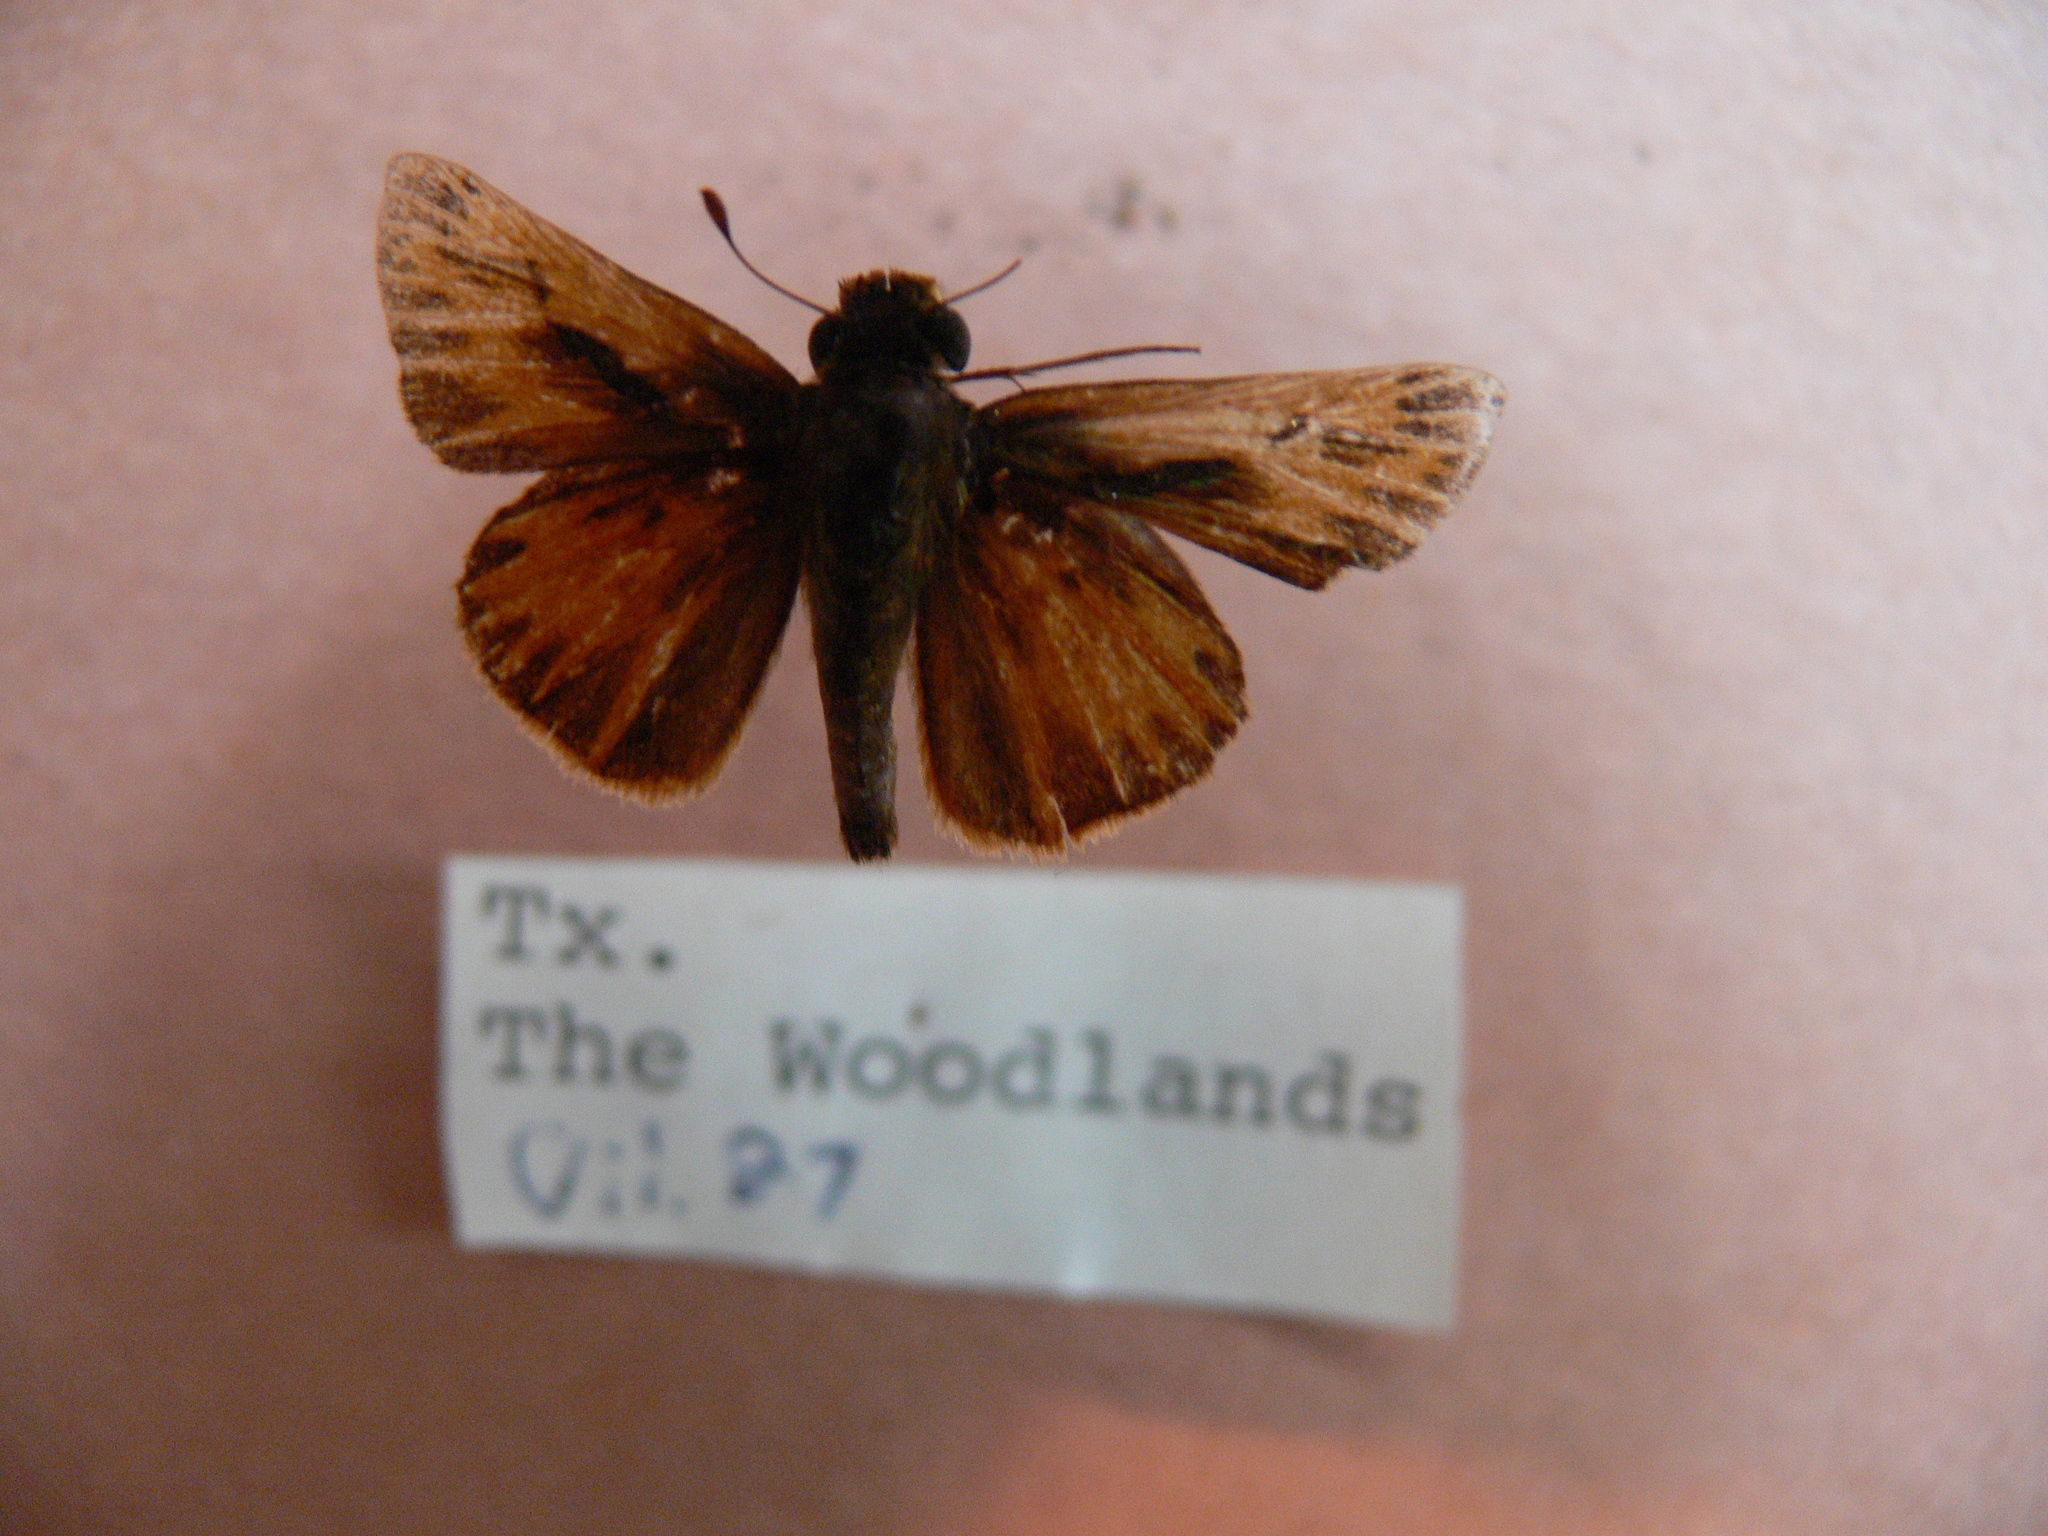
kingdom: Animalia
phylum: Arthropoda
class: Insecta
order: Lepidoptera
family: Hesperiidae
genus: Hylephila
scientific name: Hylephila phyleus
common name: Fiery skipper
